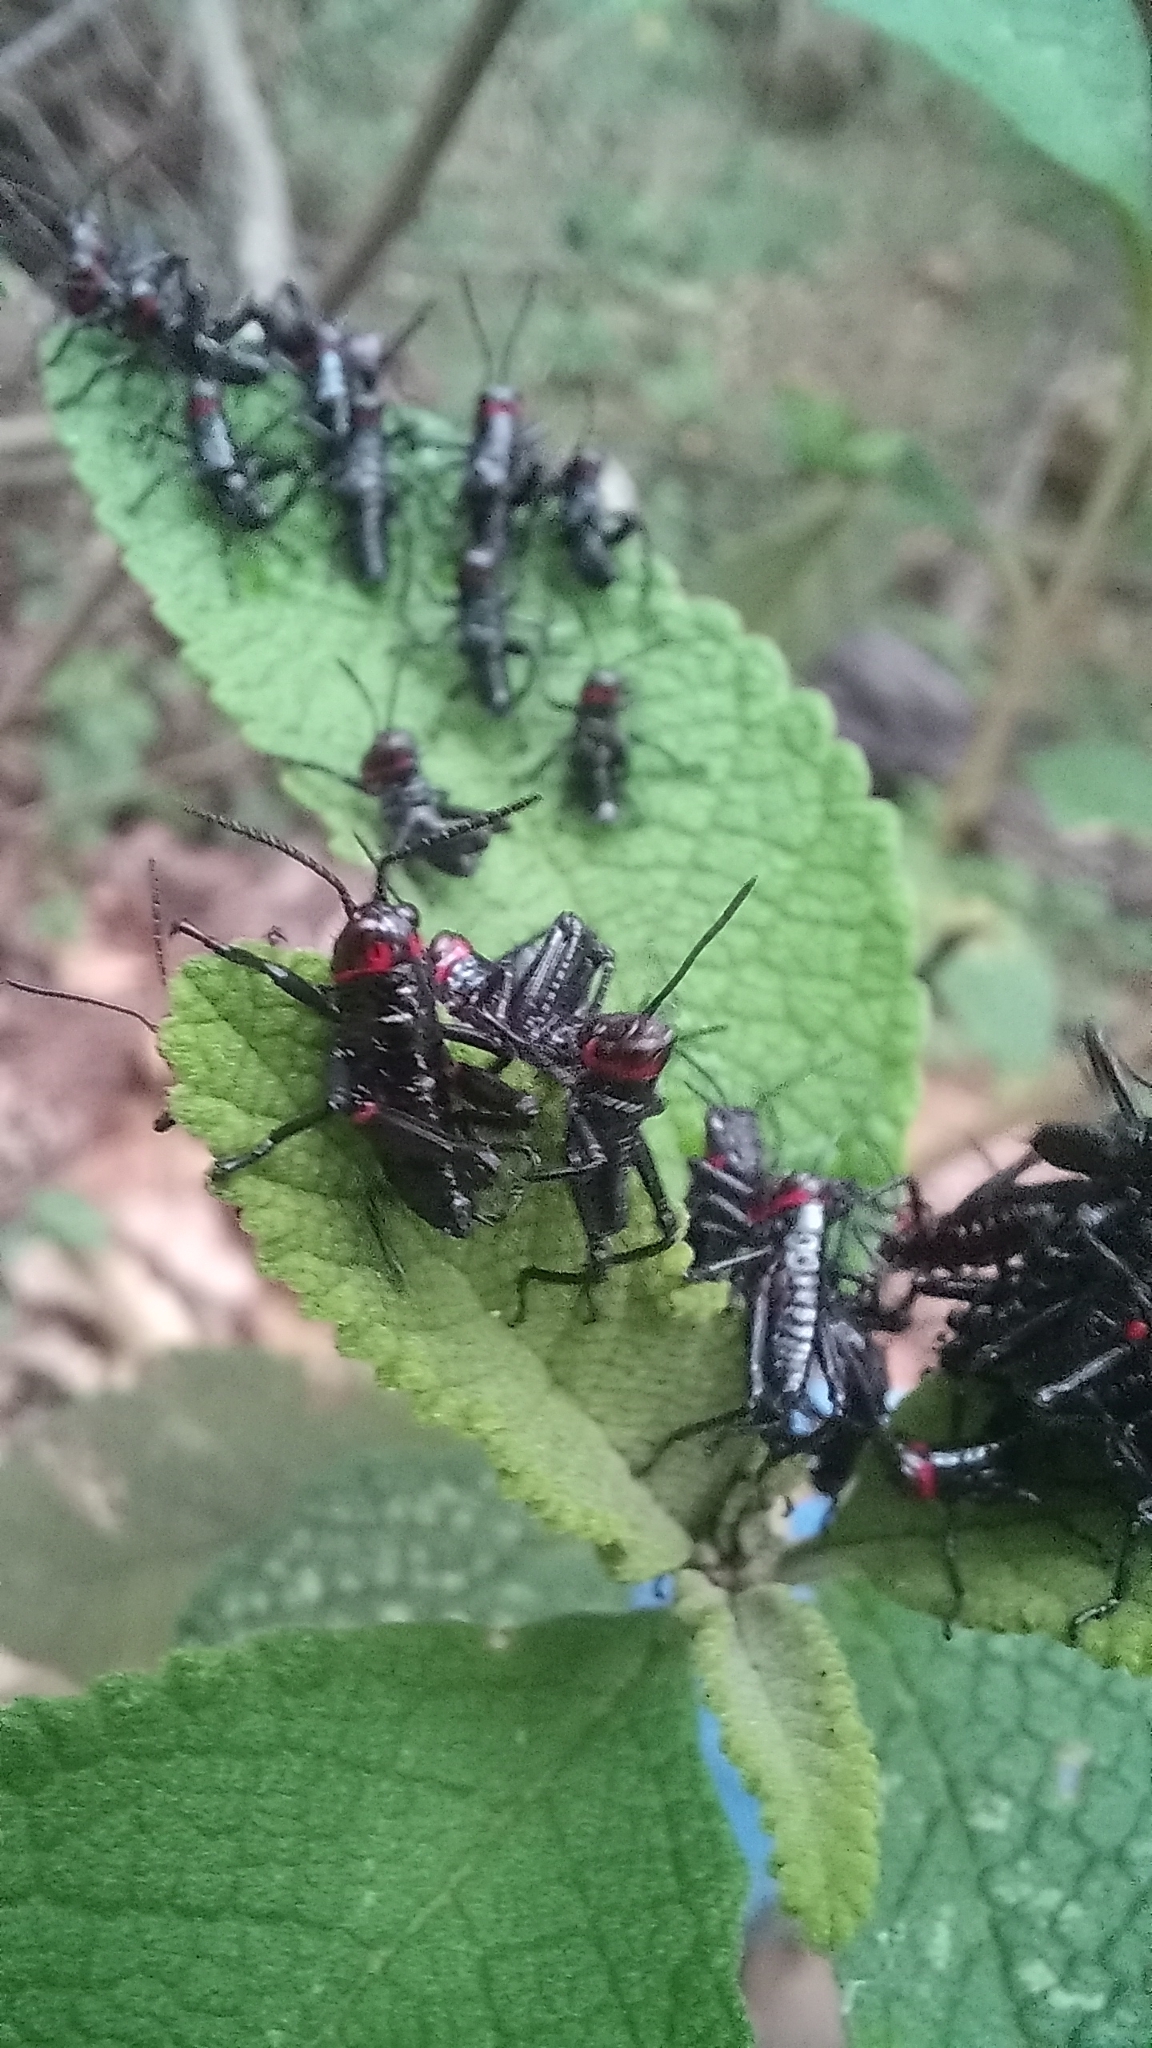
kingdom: Animalia
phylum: Arthropoda
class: Insecta
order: Orthoptera
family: Romaleidae
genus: Chromacris
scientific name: Chromacris speciosa
